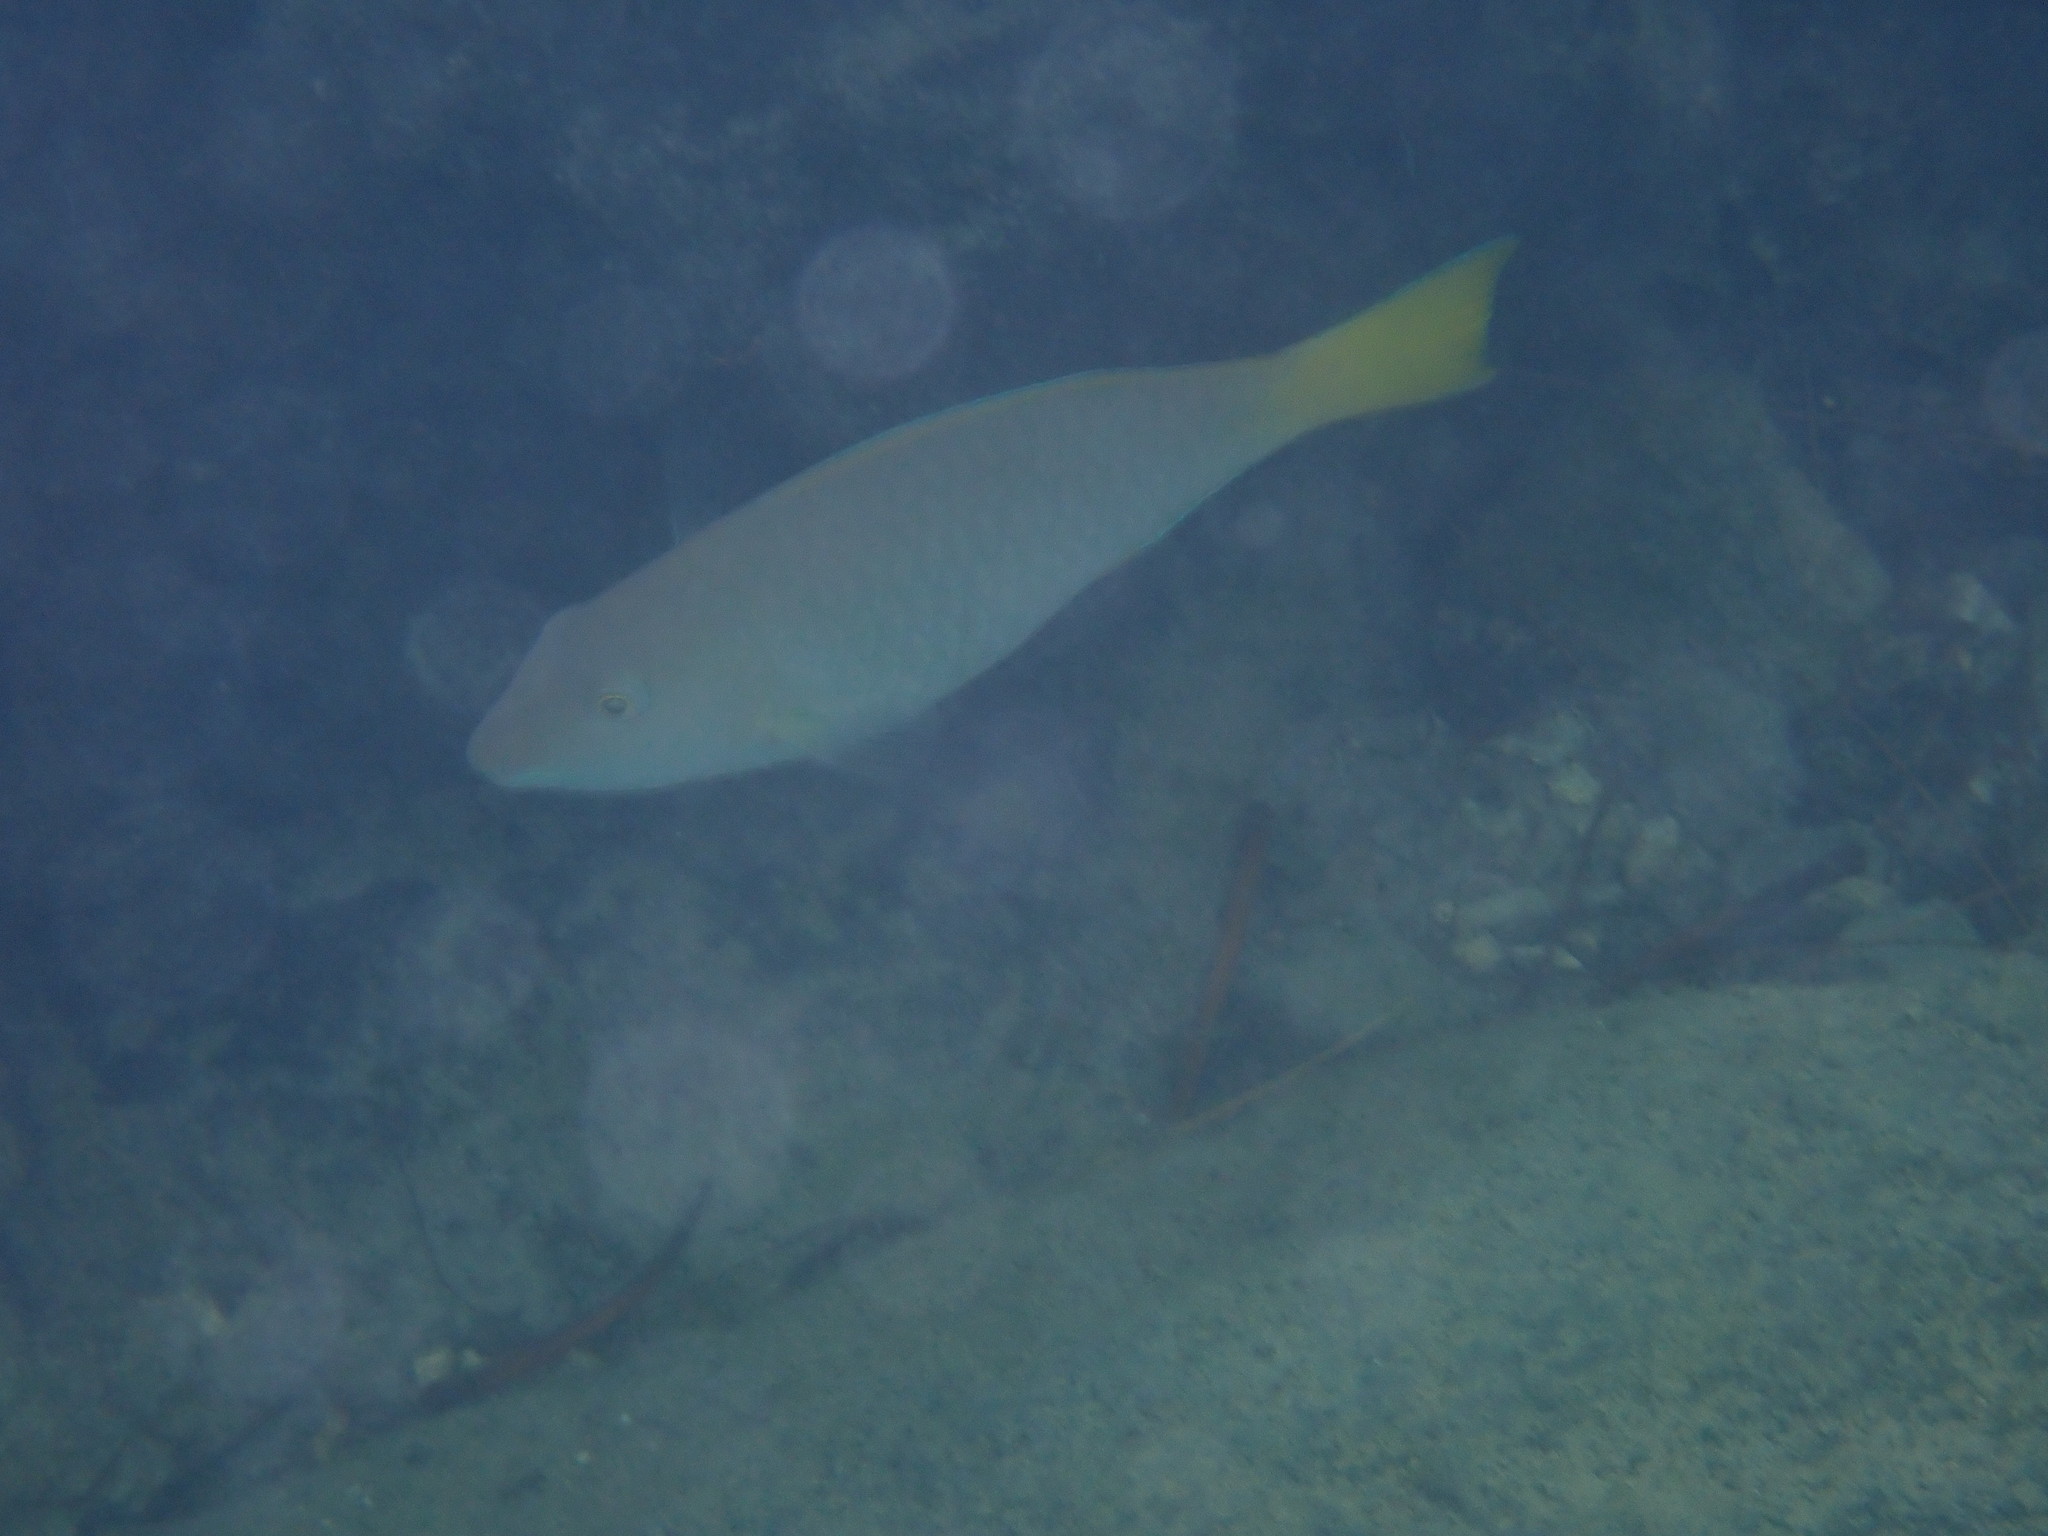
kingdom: Animalia
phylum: Chordata
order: Perciformes
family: Scaridae
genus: Hipposcarus
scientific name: Hipposcarus longiceps
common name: Pacific longnose parrotfish
